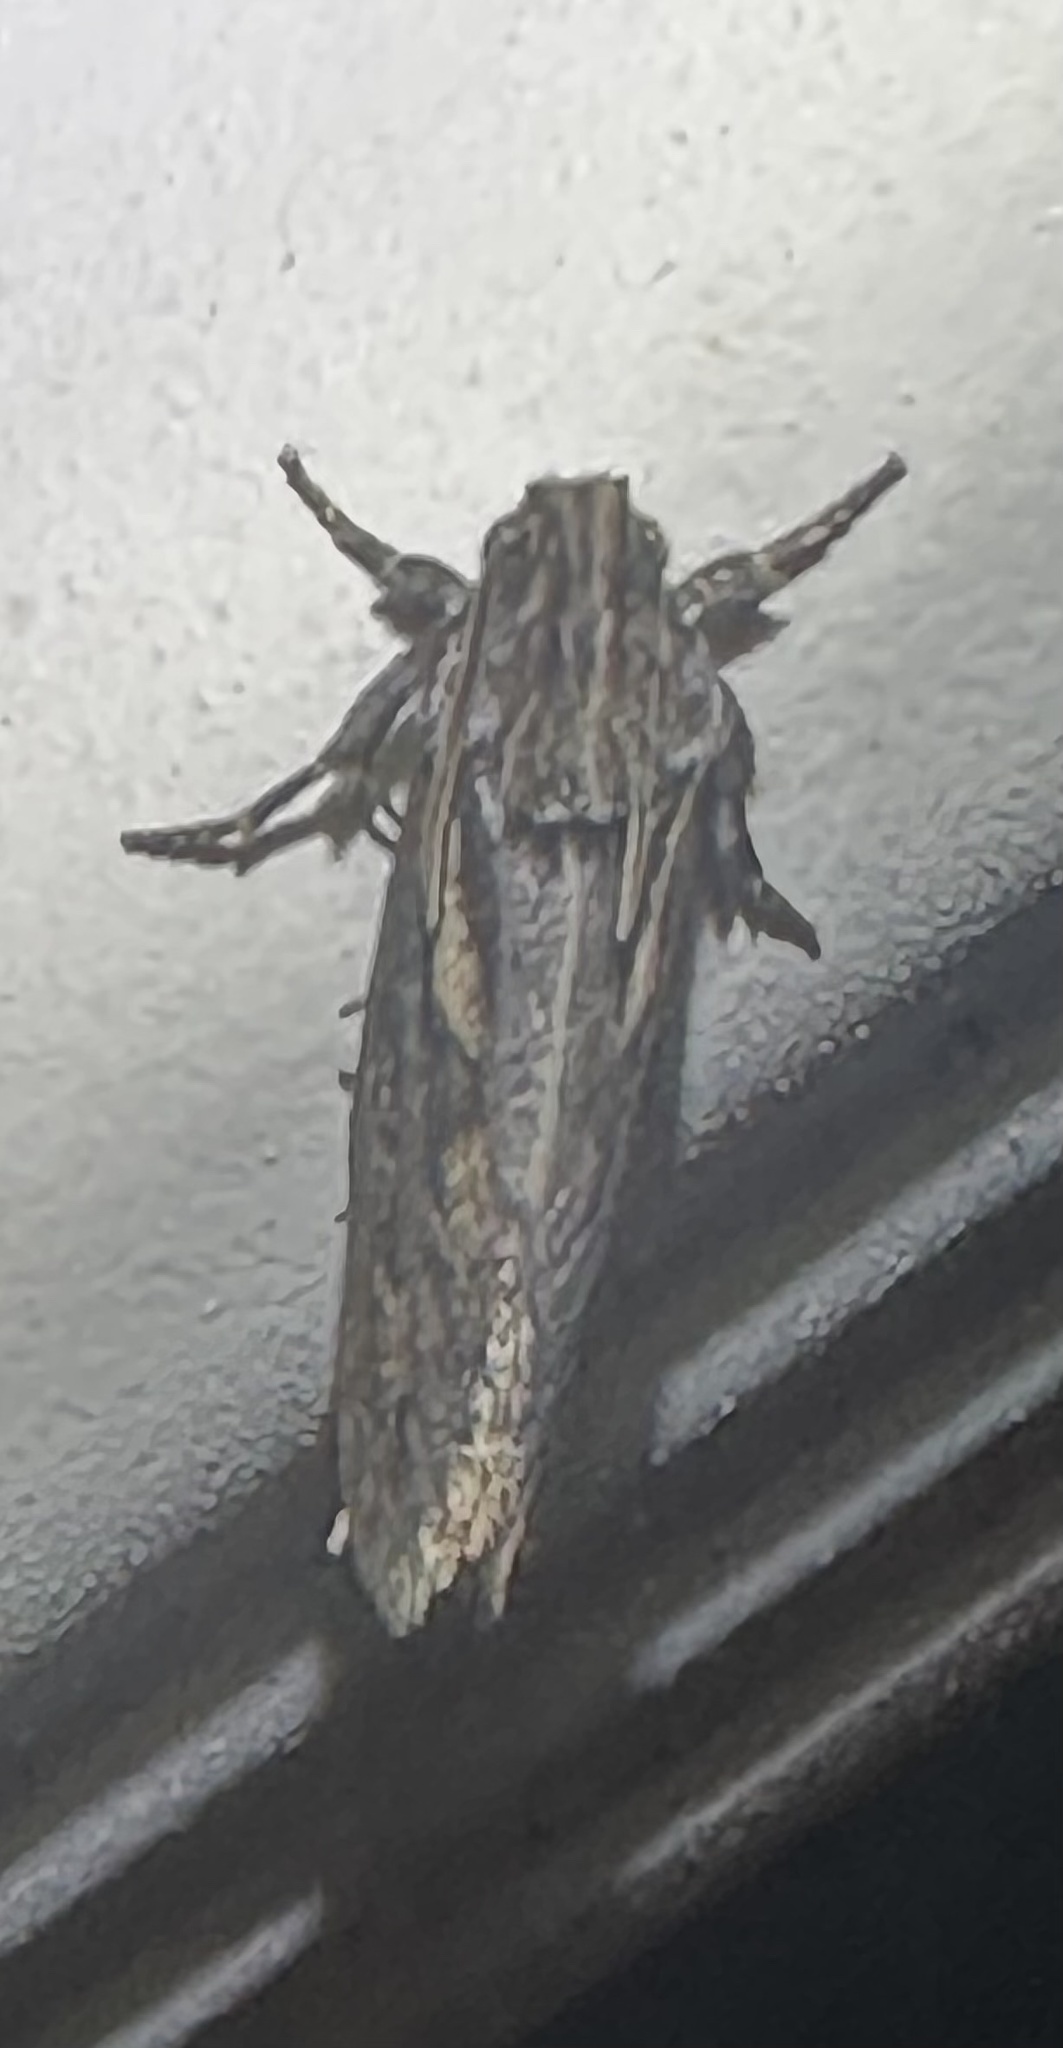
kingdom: Animalia
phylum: Arthropoda
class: Insecta
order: Lepidoptera
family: Tineidae
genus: Acrolophus
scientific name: Acrolophus popeanella
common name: Clemens' grass tubeworm moth
